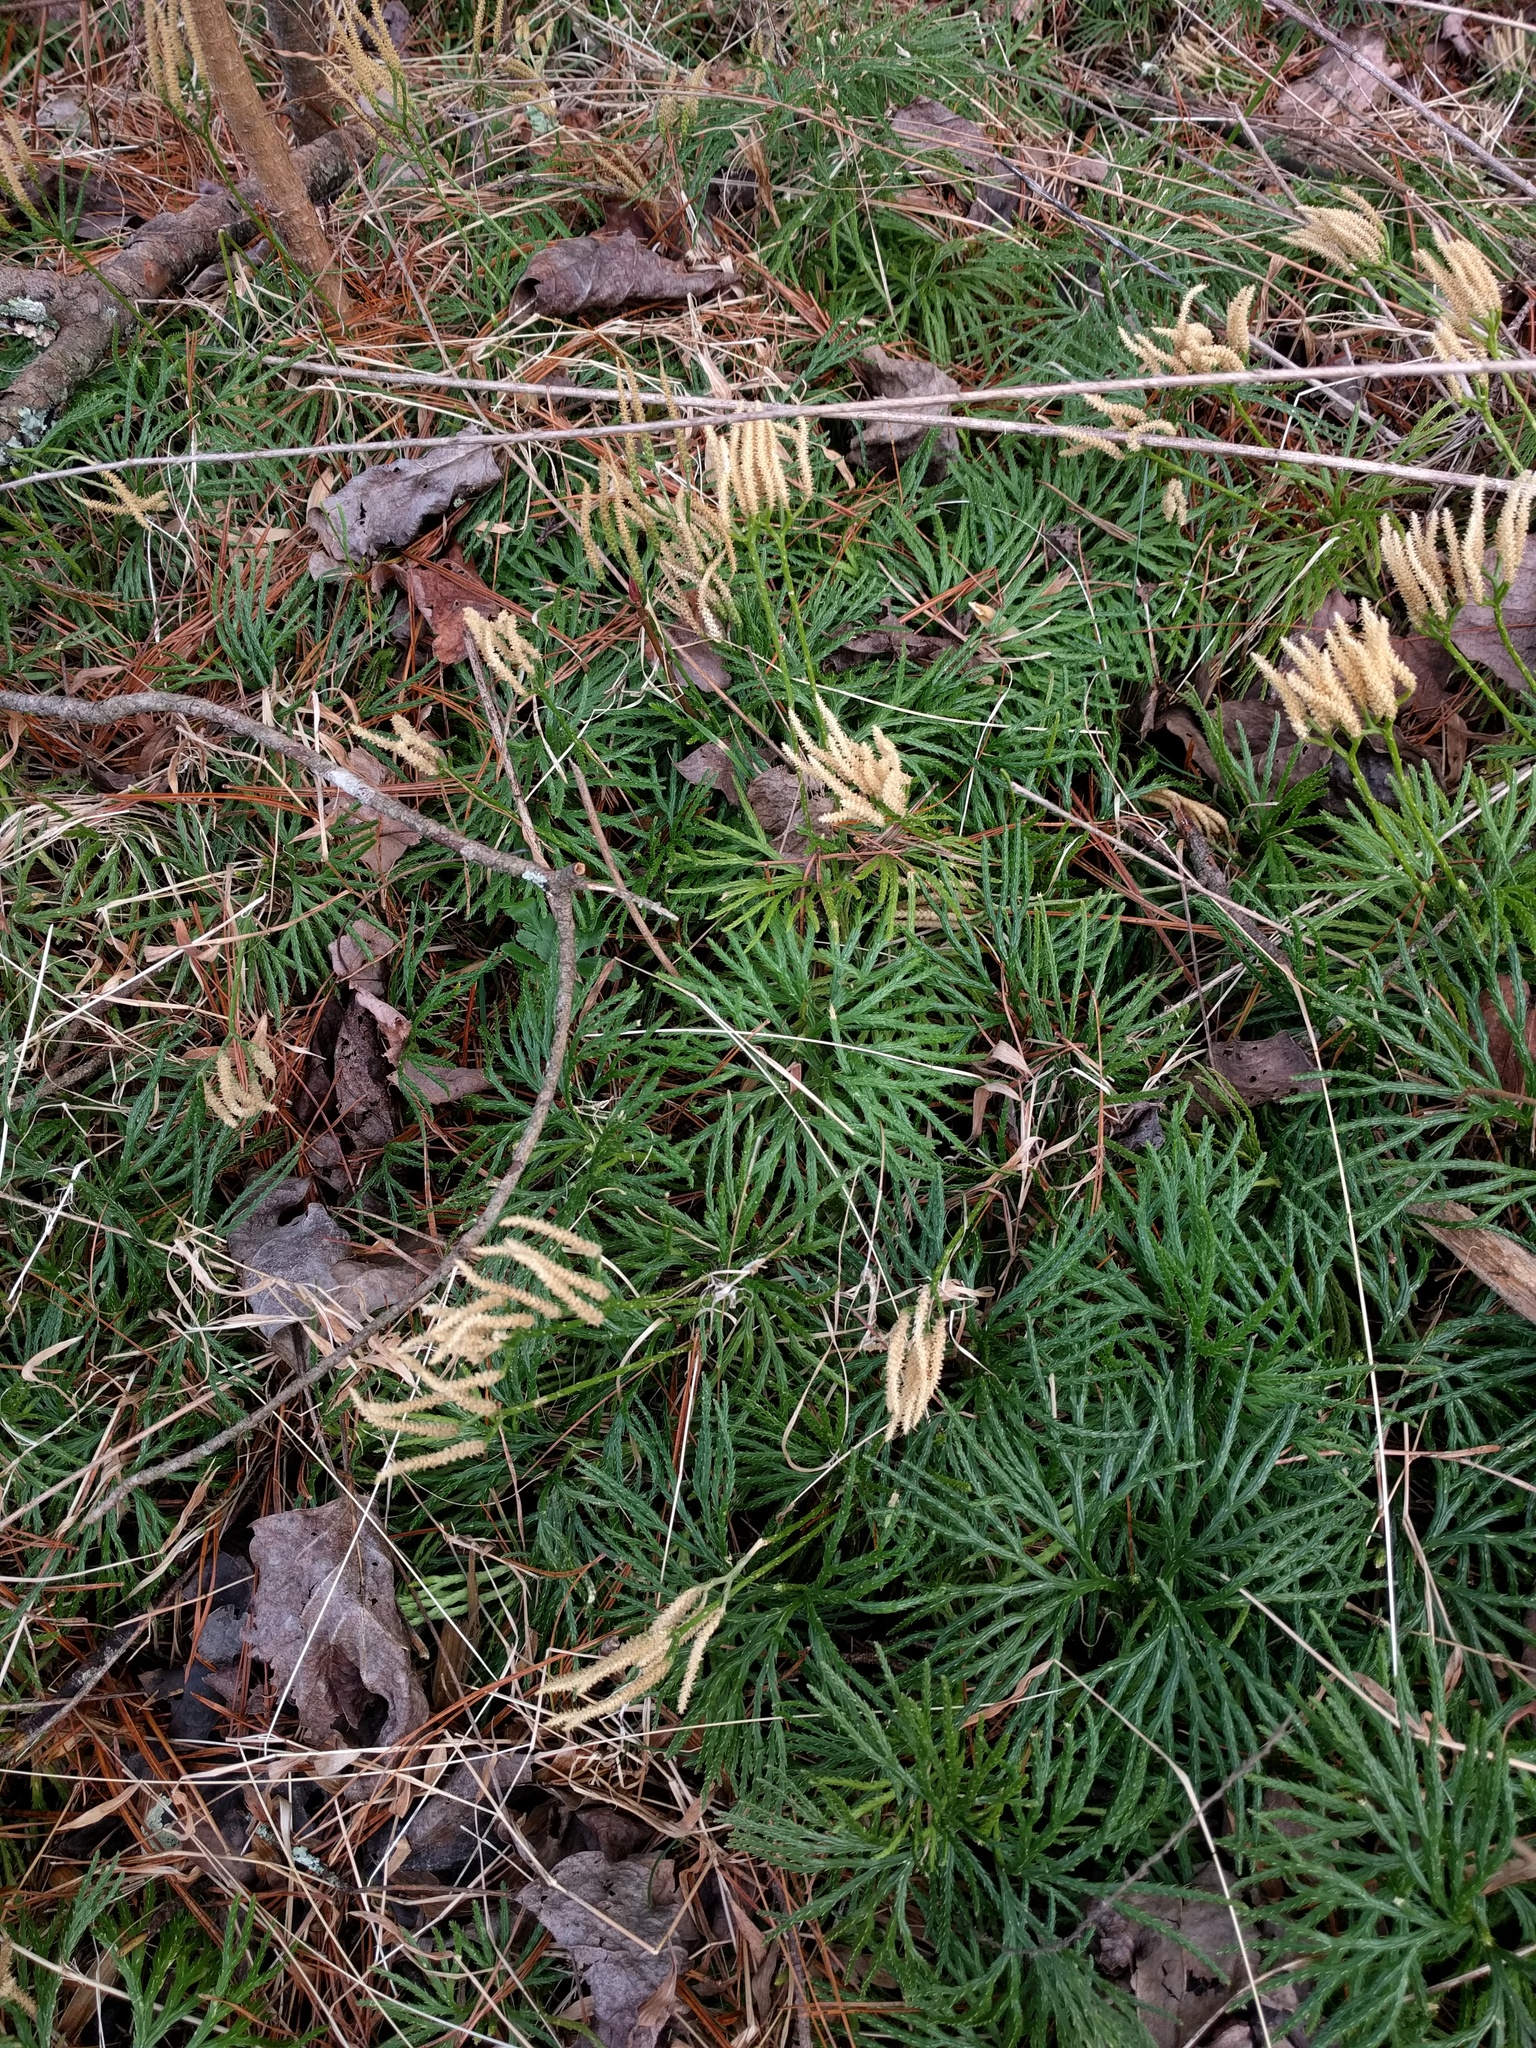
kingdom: Plantae
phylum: Tracheophyta
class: Lycopodiopsida
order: Lycopodiales
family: Lycopodiaceae
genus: Diphasiastrum
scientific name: Diphasiastrum digitatum
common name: Southern running-pine
